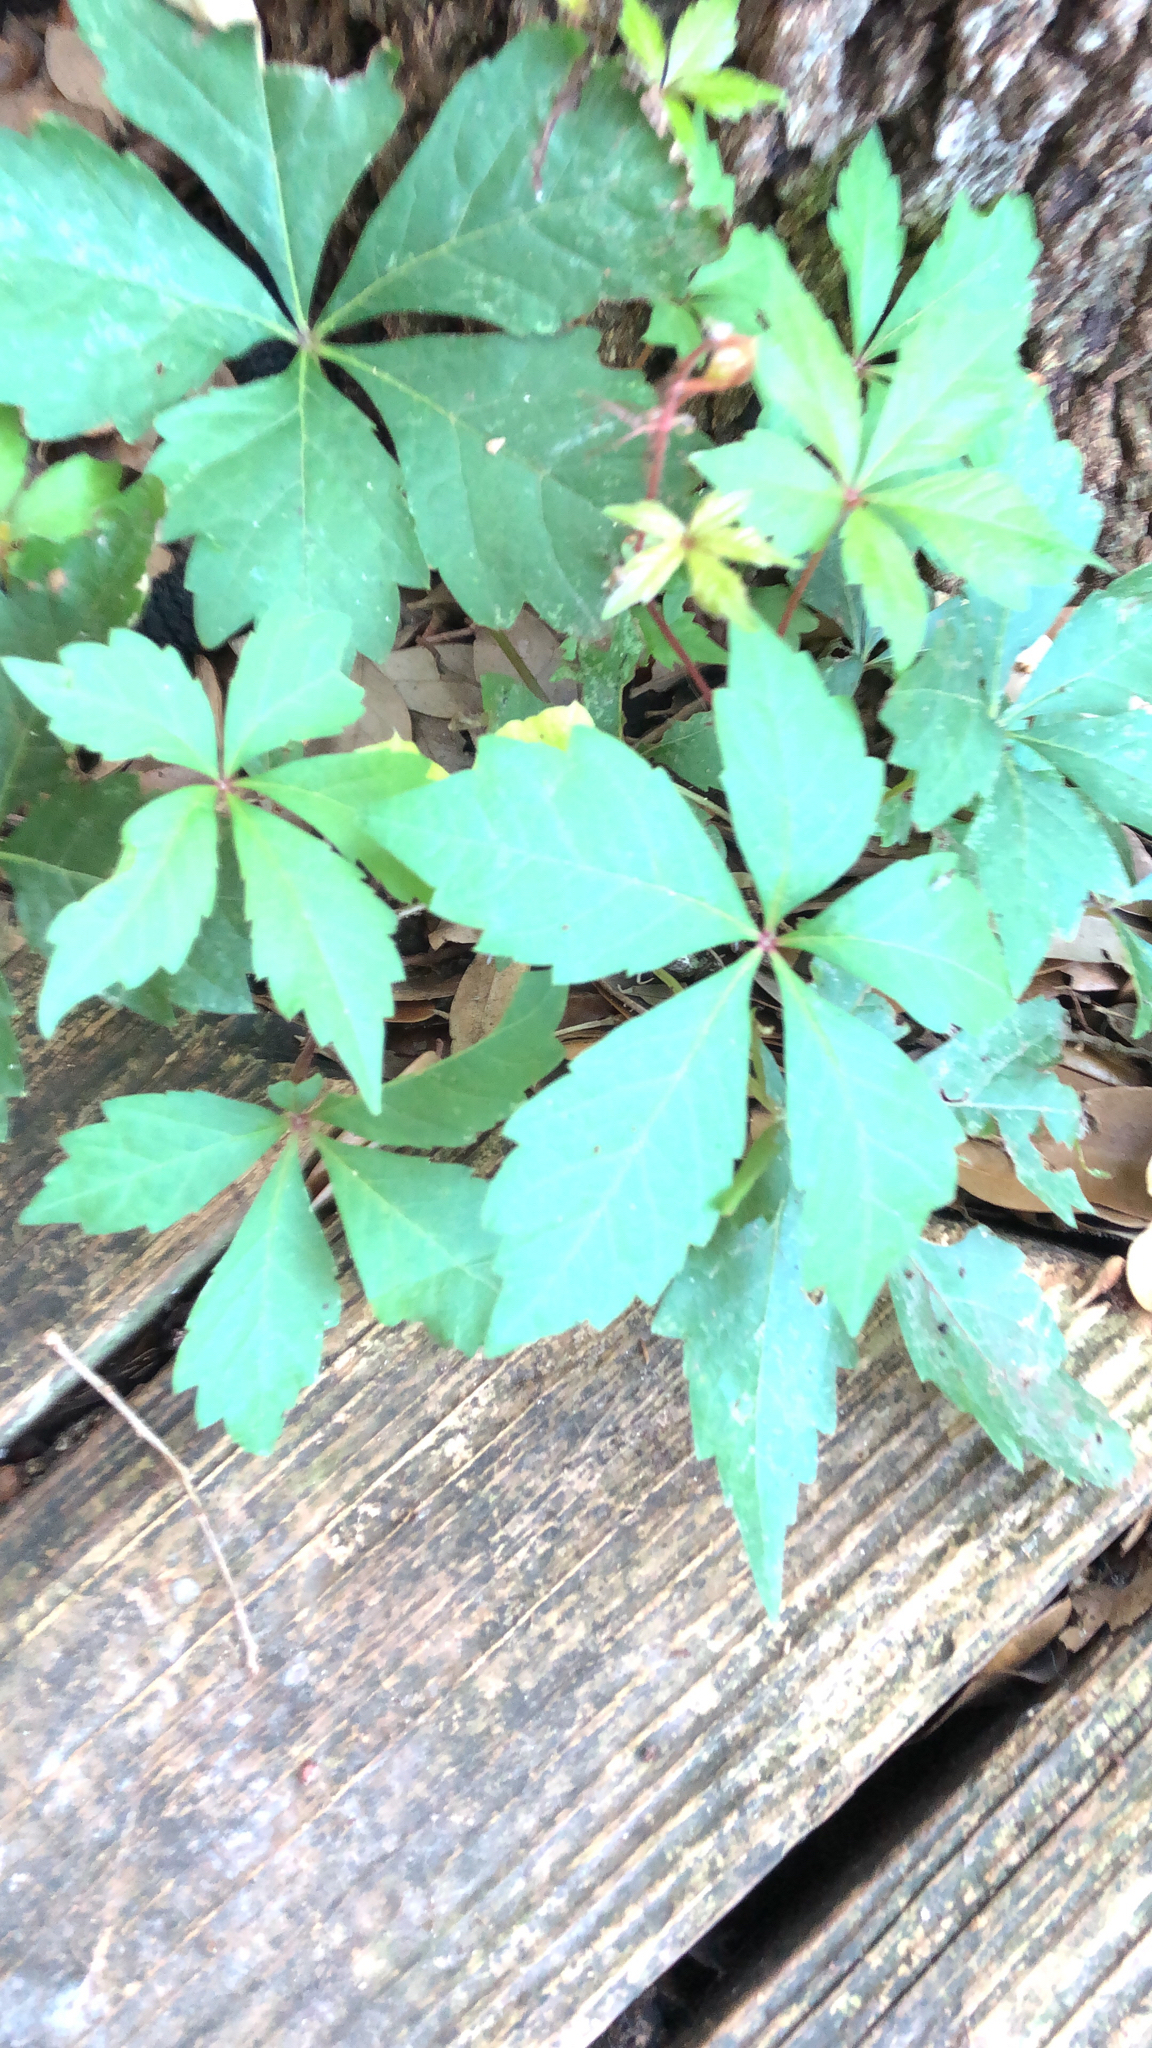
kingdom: Plantae
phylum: Tracheophyta
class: Magnoliopsida
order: Vitales
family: Vitaceae
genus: Parthenocissus
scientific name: Parthenocissus quinquefolia
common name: Virginia-creeper
